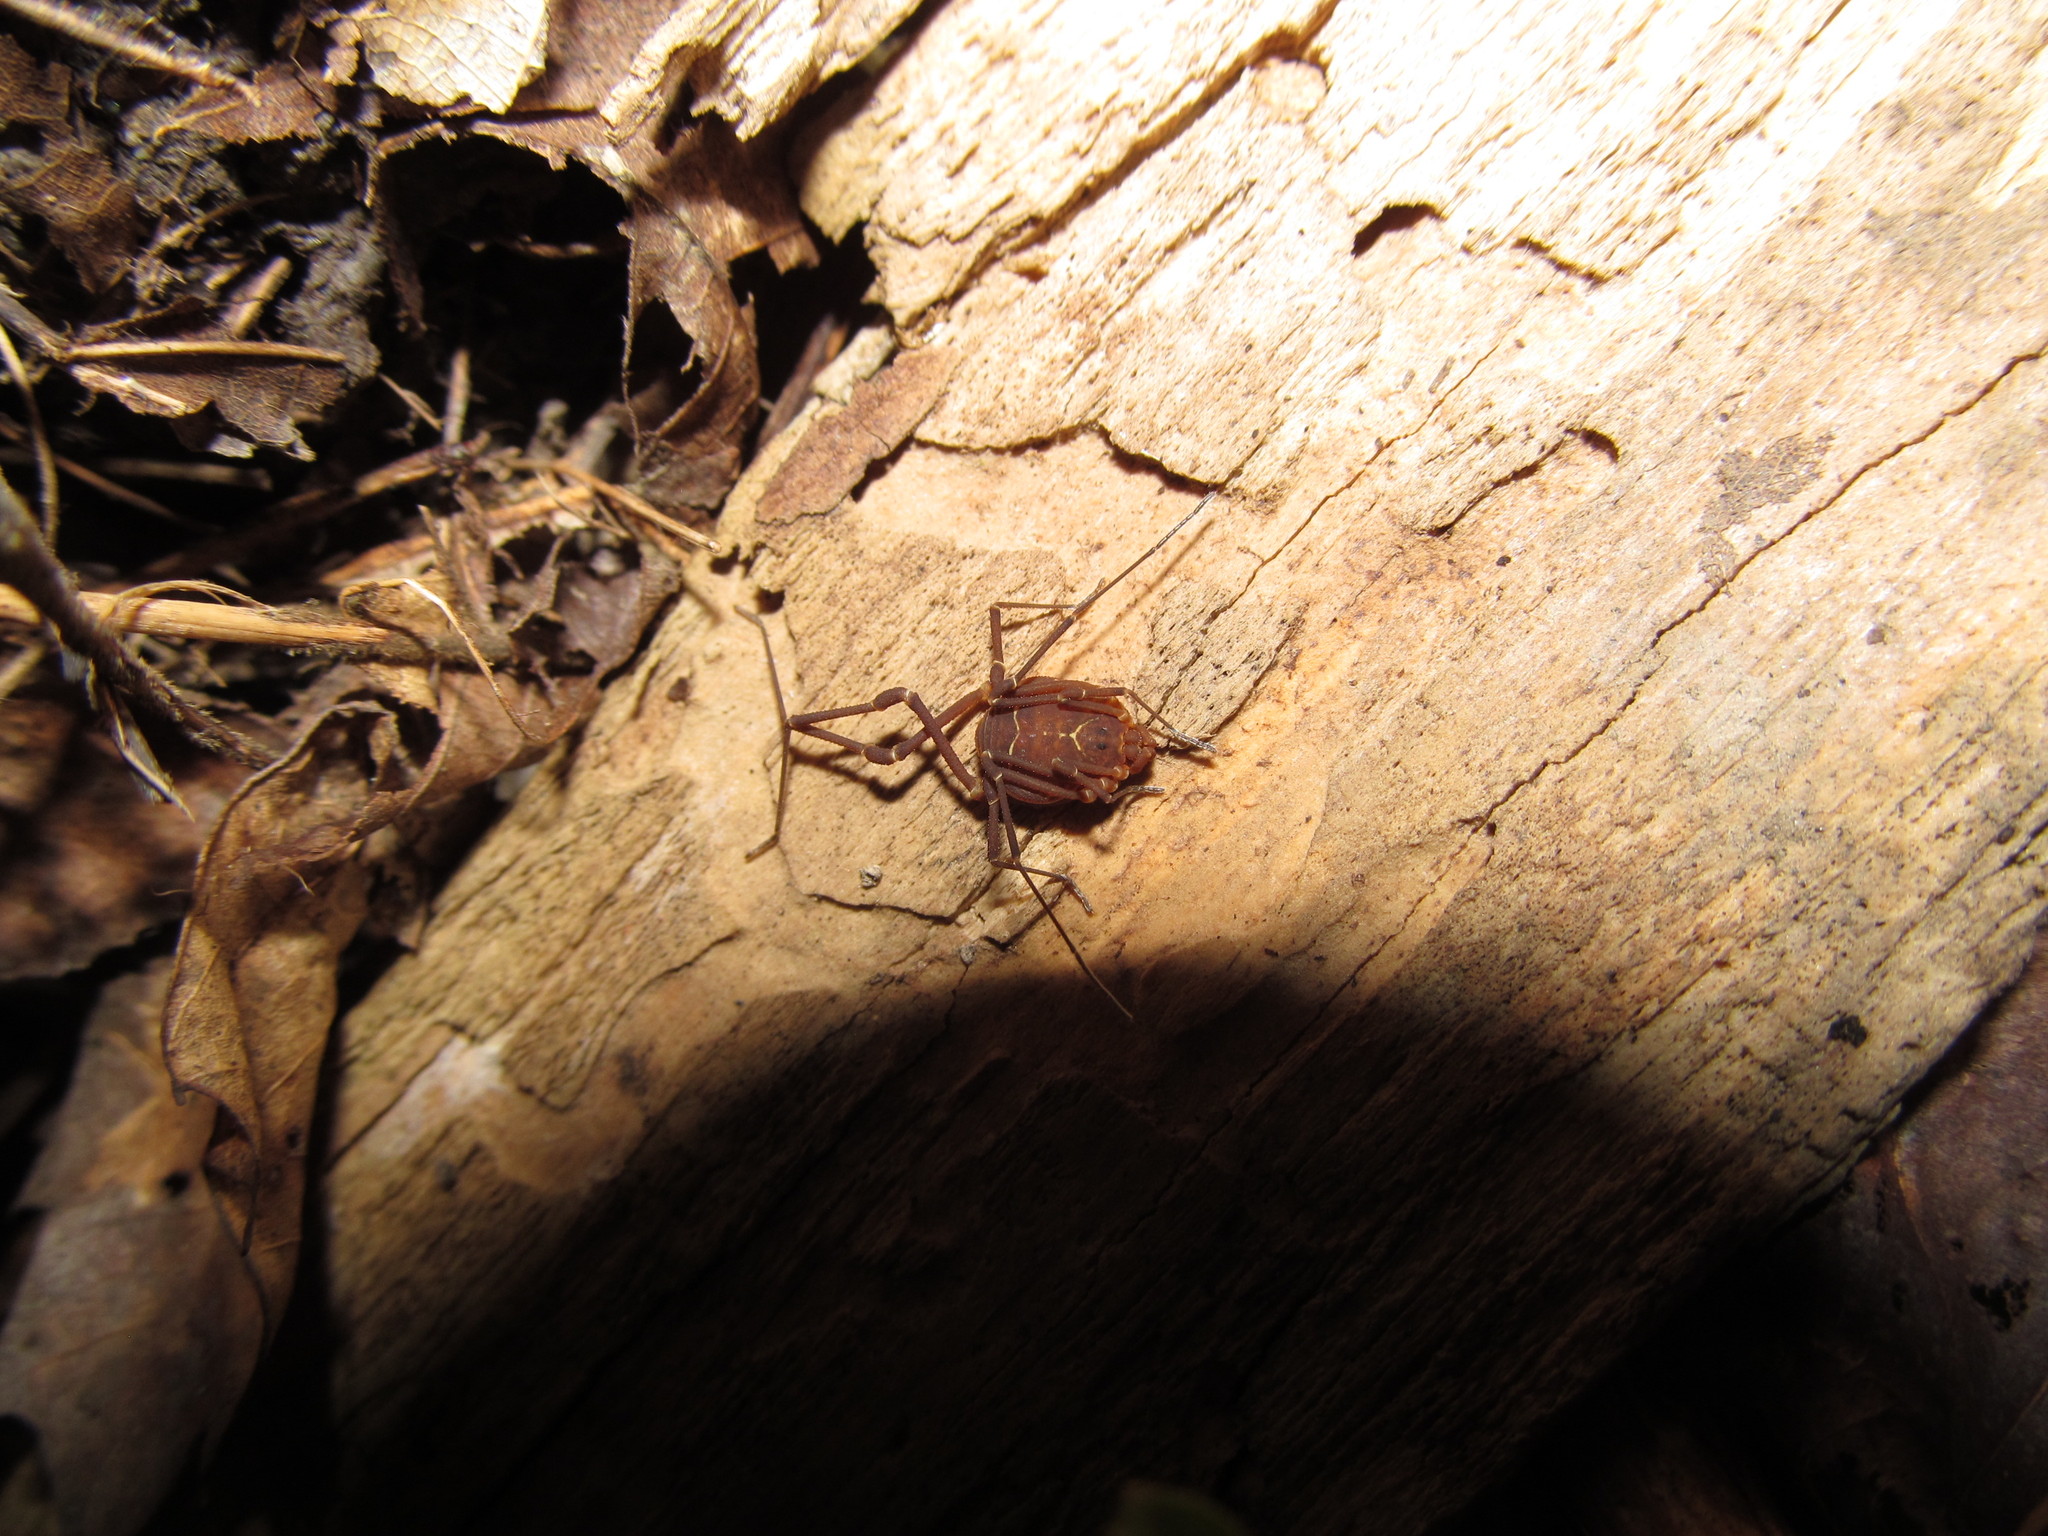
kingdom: Animalia
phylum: Arthropoda
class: Arachnida
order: Opiliones
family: Cosmetidae
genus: Libitioides
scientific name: Libitioides sayi
